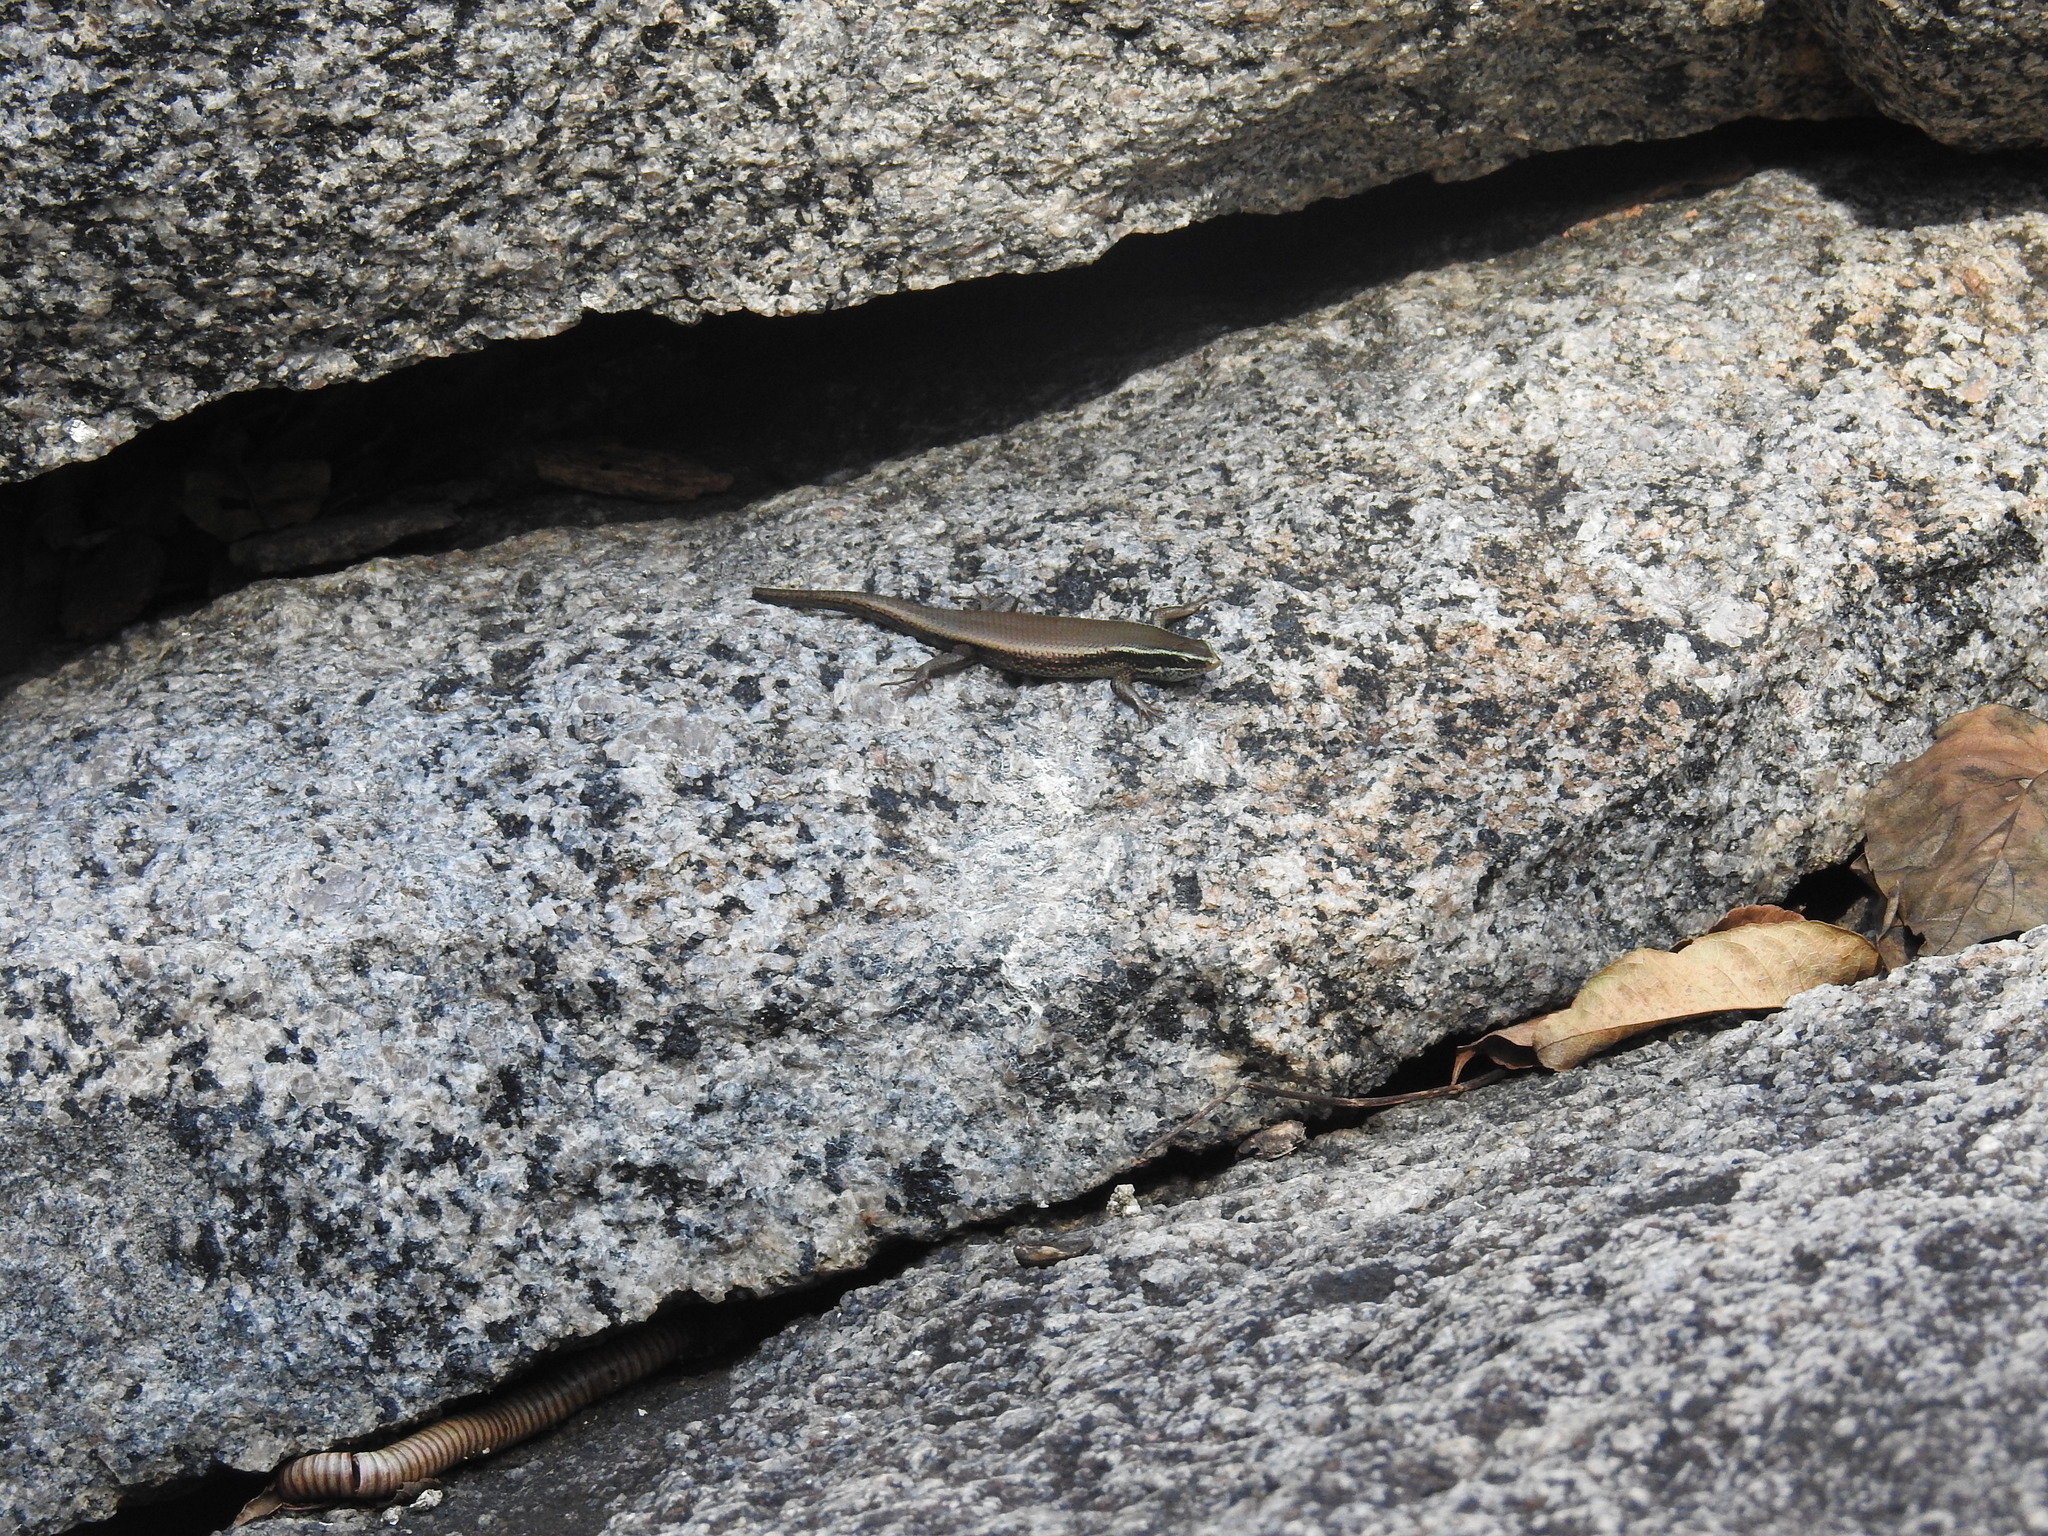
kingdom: Animalia
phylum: Chordata
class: Squamata
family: Scincidae
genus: Eutropis
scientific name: Eutropis carinata
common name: Keeled indian mabuya
